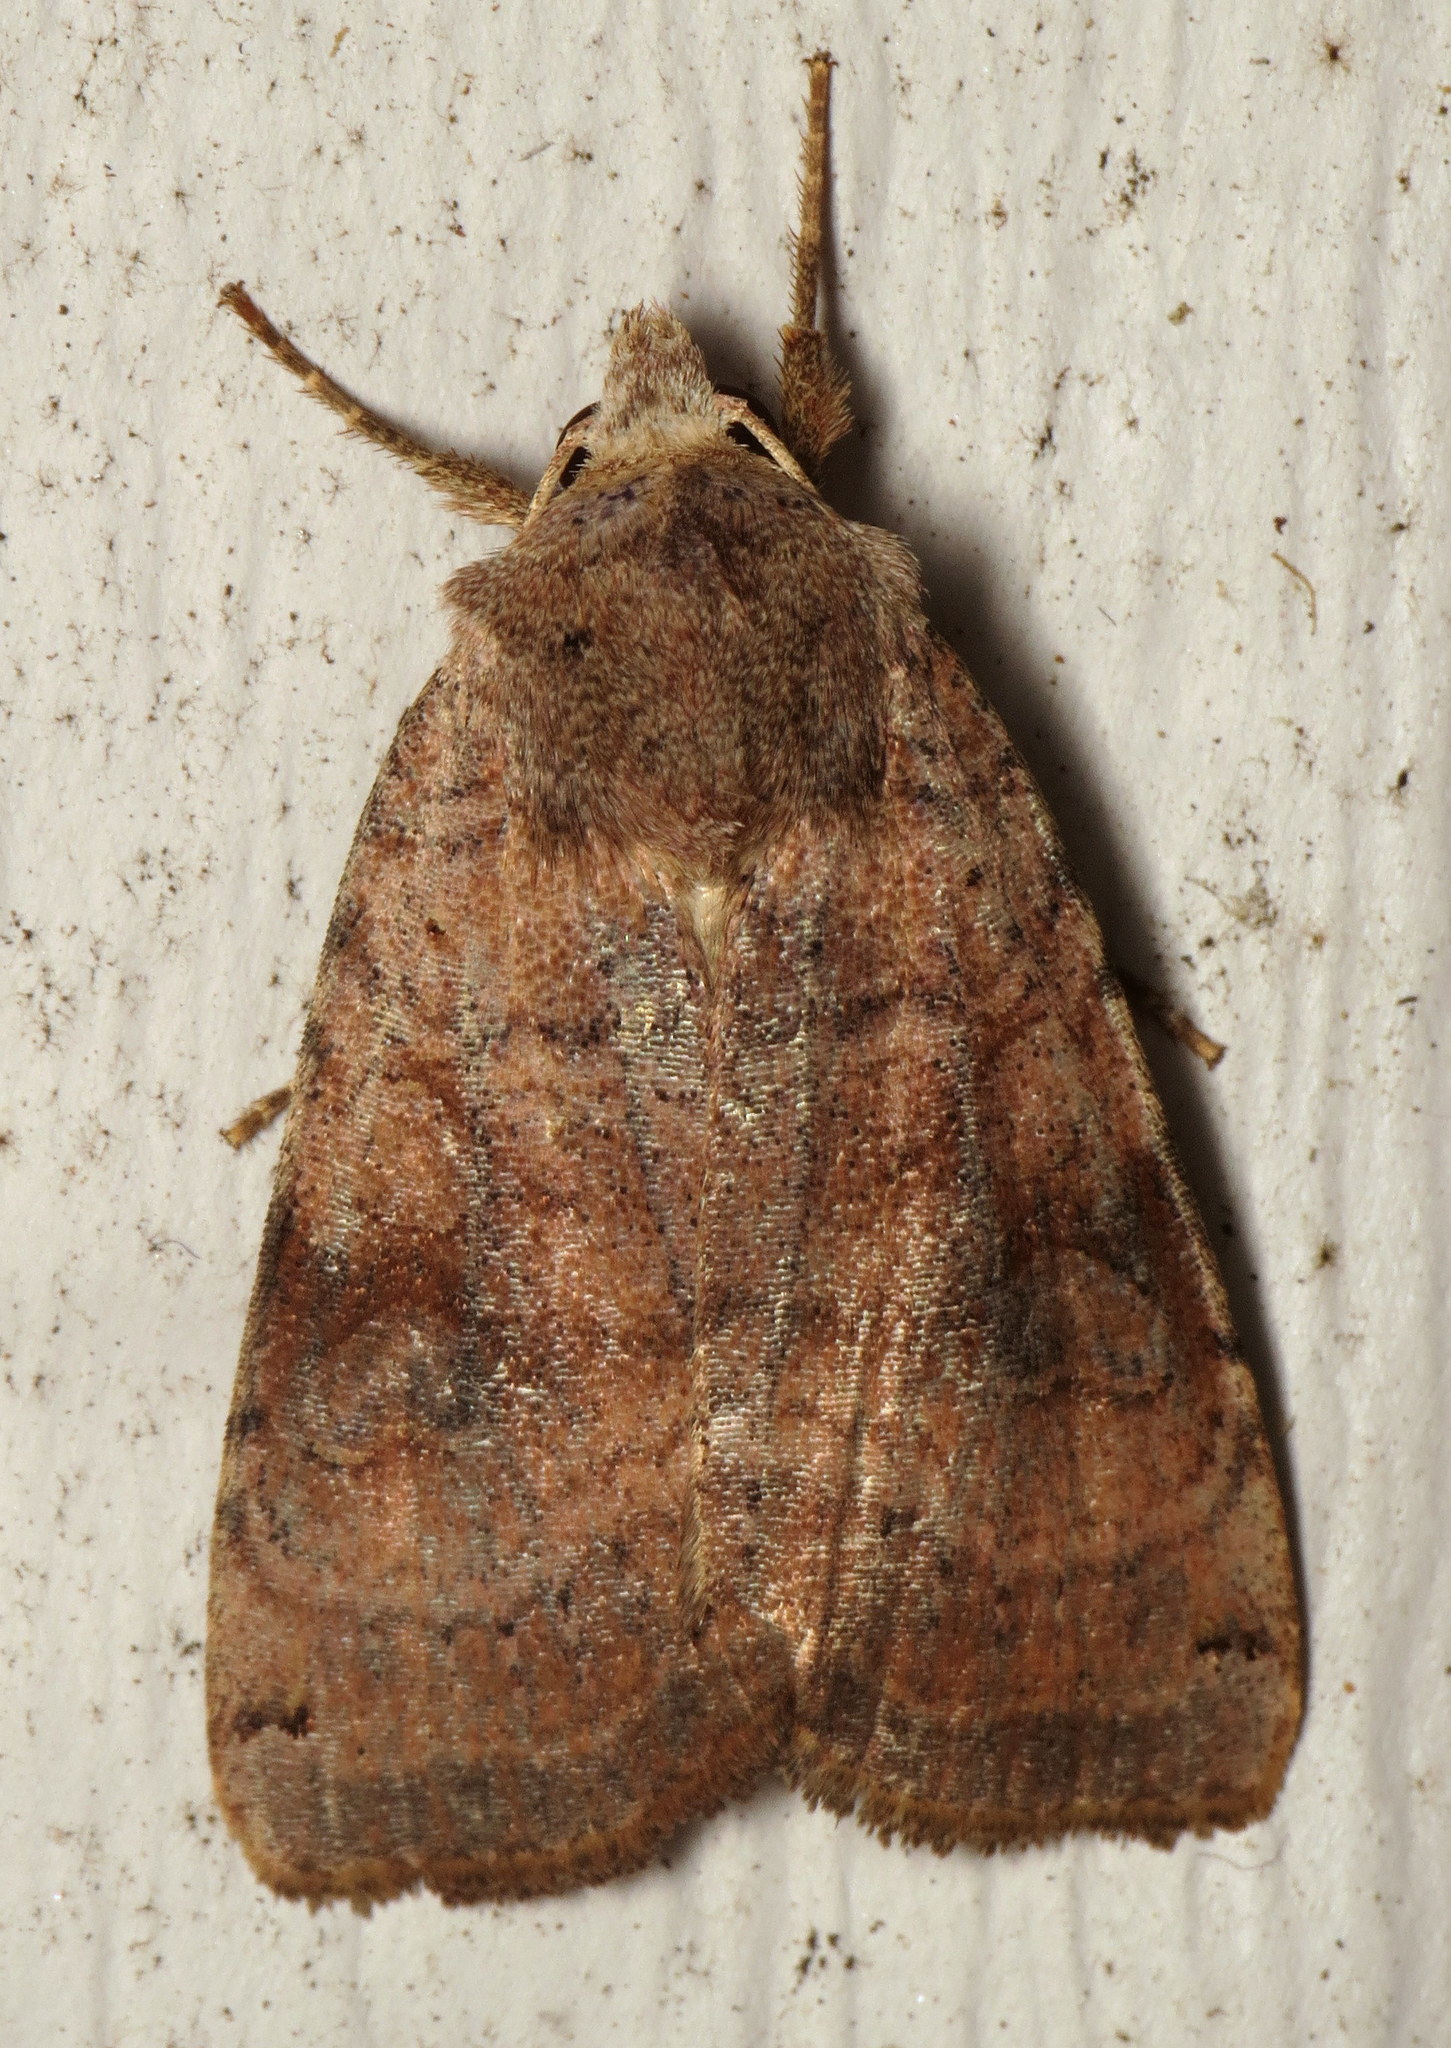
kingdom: Animalia
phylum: Arthropoda
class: Insecta
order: Lepidoptera
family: Noctuidae
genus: Xestia
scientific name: Xestia smithii
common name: Smith's dart
